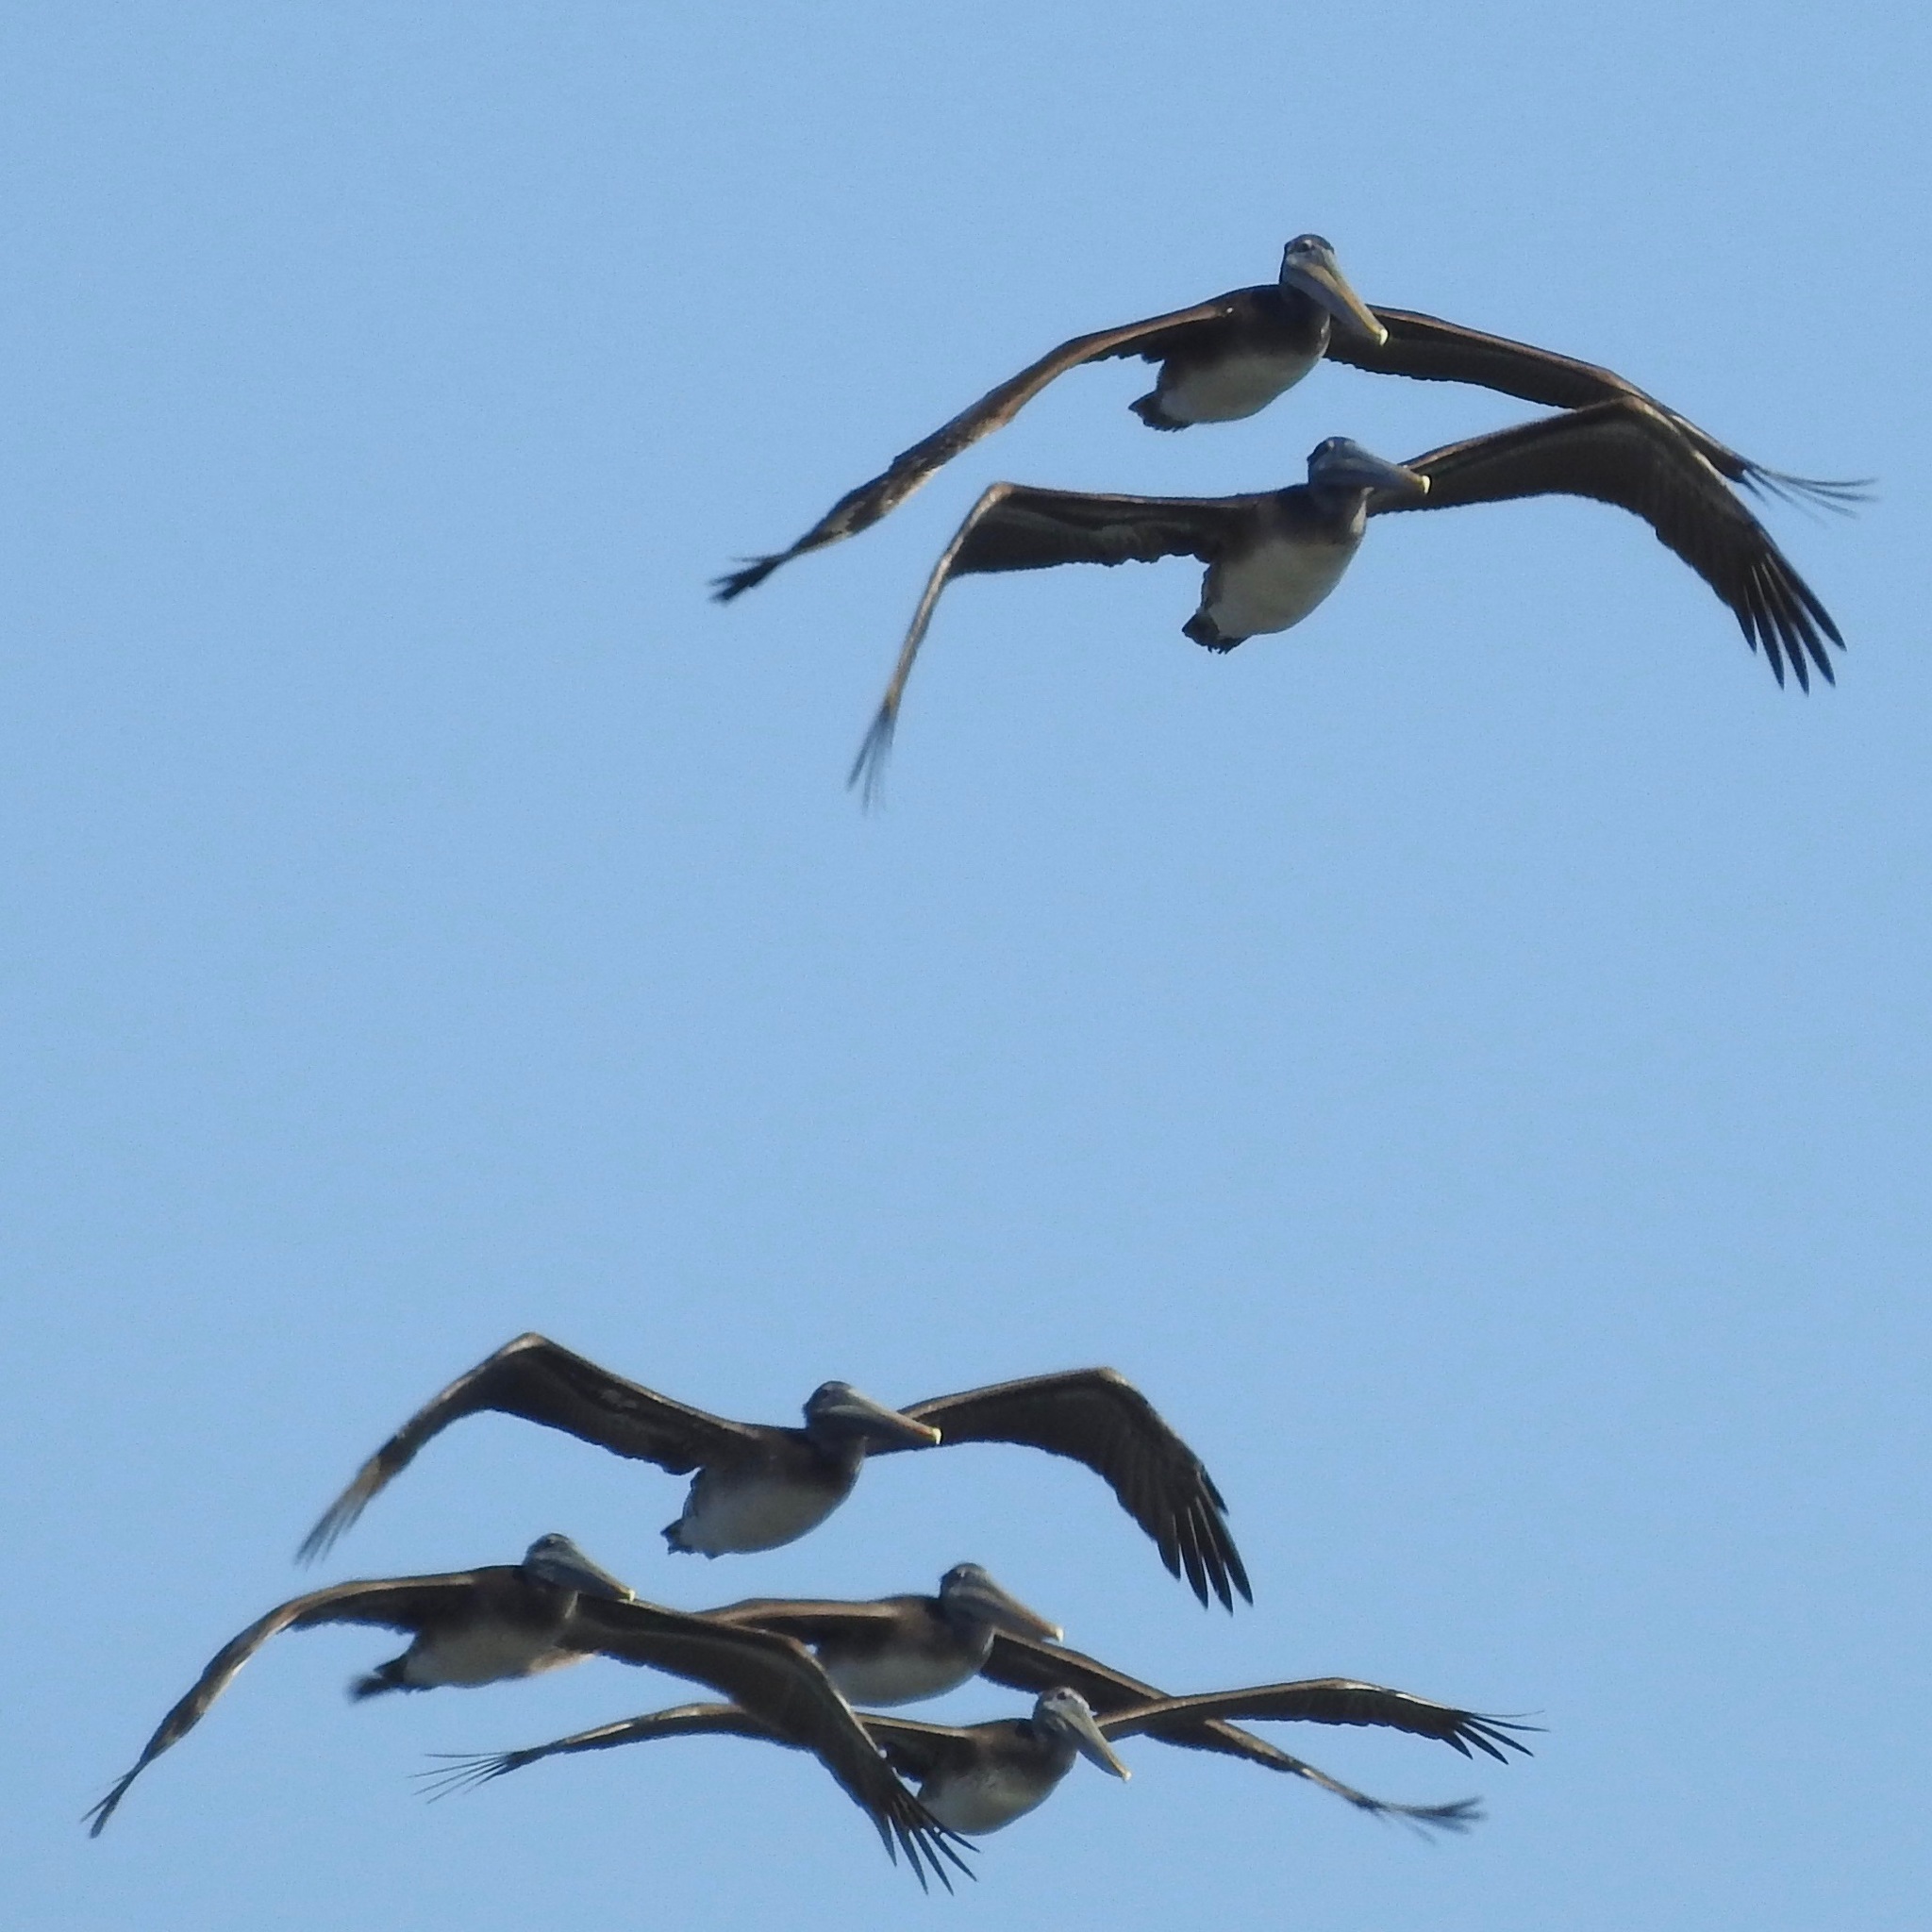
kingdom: Animalia
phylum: Chordata
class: Aves
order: Pelecaniformes
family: Pelecanidae
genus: Pelecanus
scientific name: Pelecanus occidentalis
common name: Brown pelican
